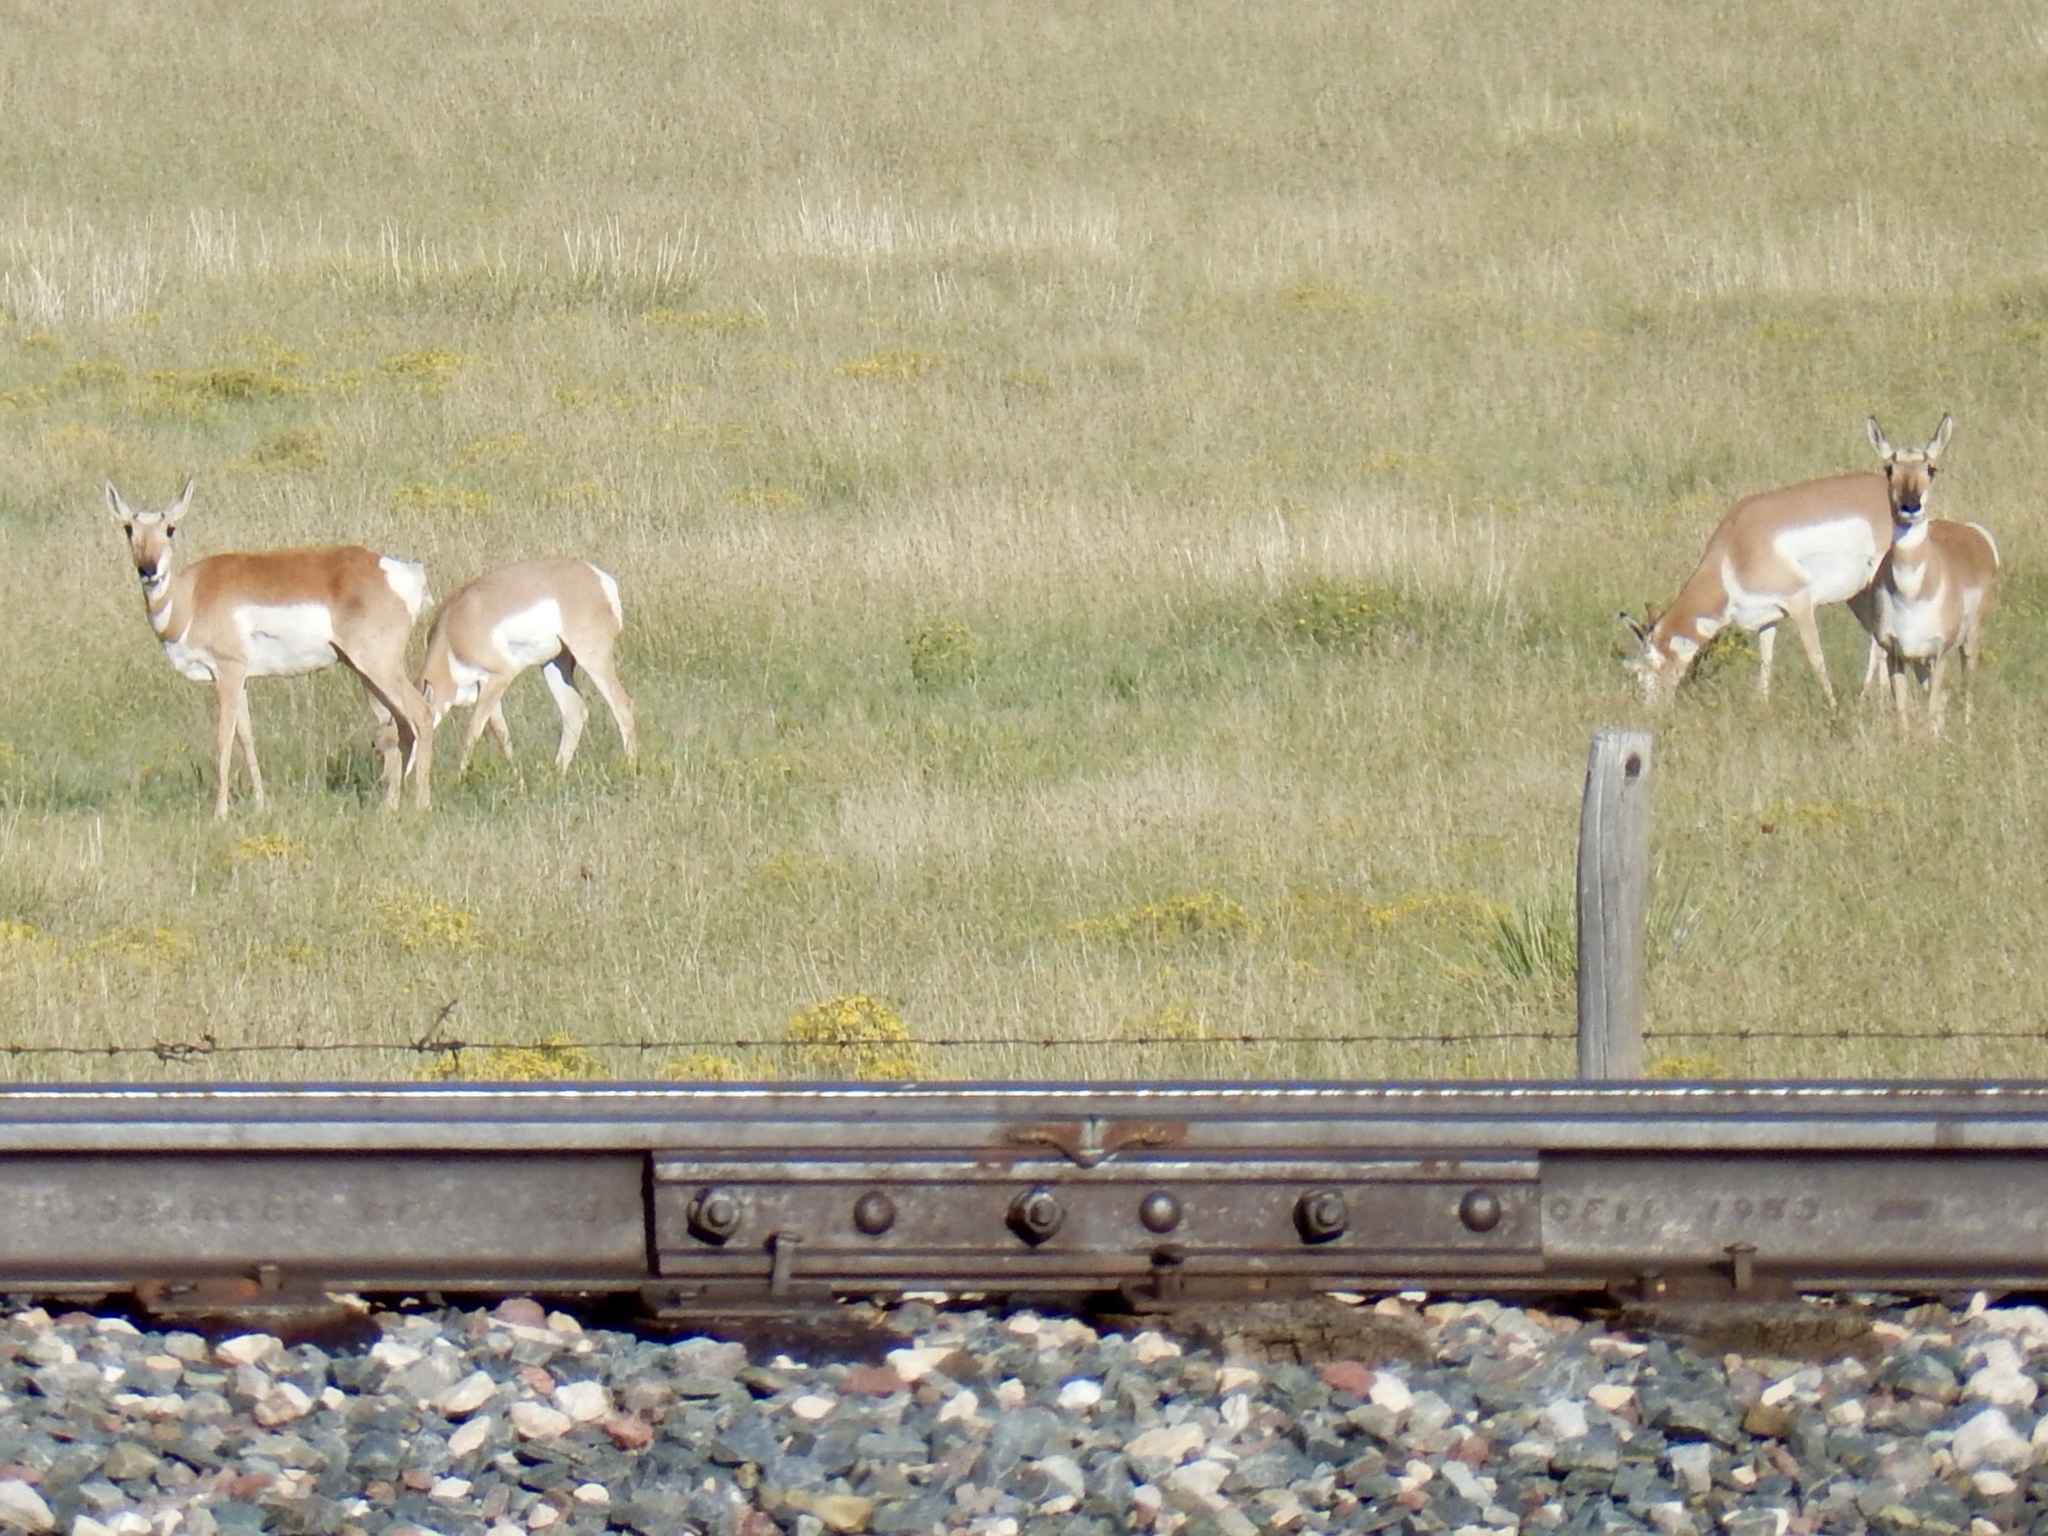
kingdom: Animalia
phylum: Chordata
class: Mammalia
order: Artiodactyla
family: Antilocapridae
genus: Antilocapra
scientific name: Antilocapra americana
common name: Pronghorn
